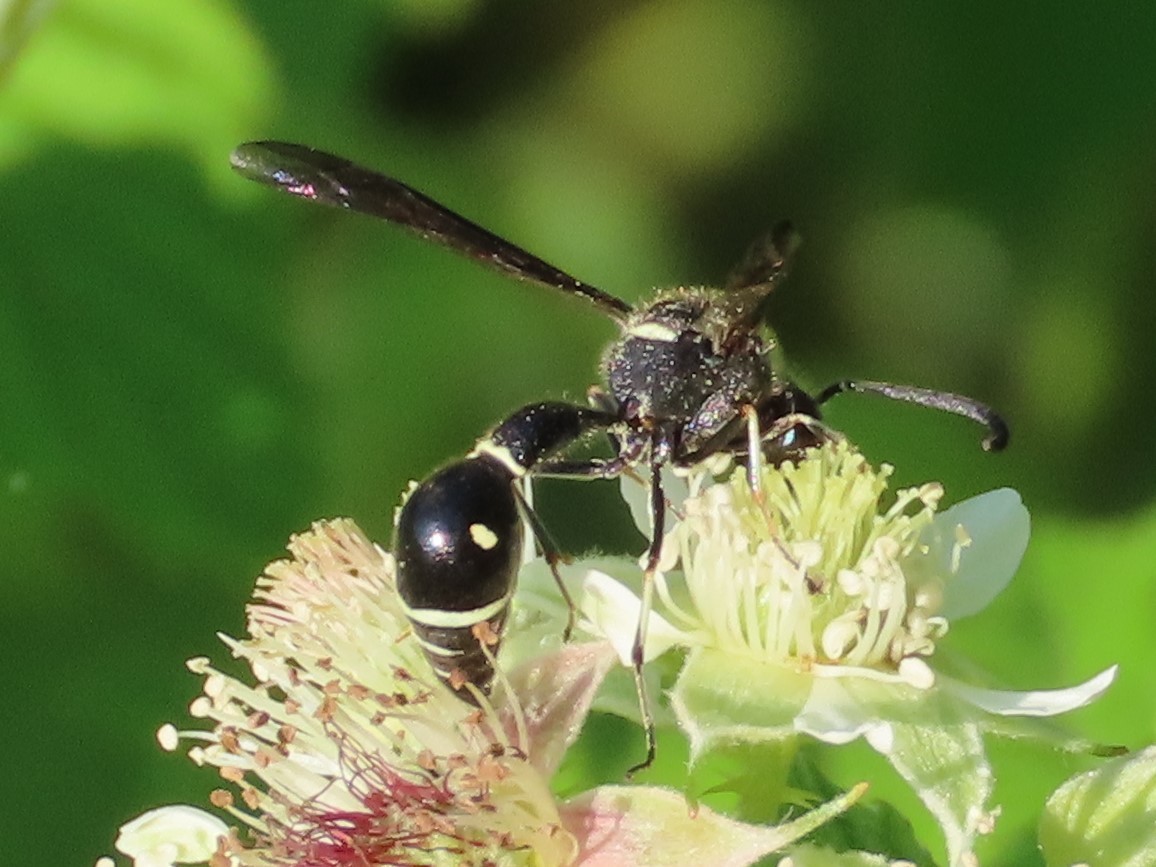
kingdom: Animalia
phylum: Arthropoda
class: Insecta
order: Hymenoptera
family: Vespidae
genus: Eumenes
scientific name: Eumenes fraternus
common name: Fraternal potter wasp
